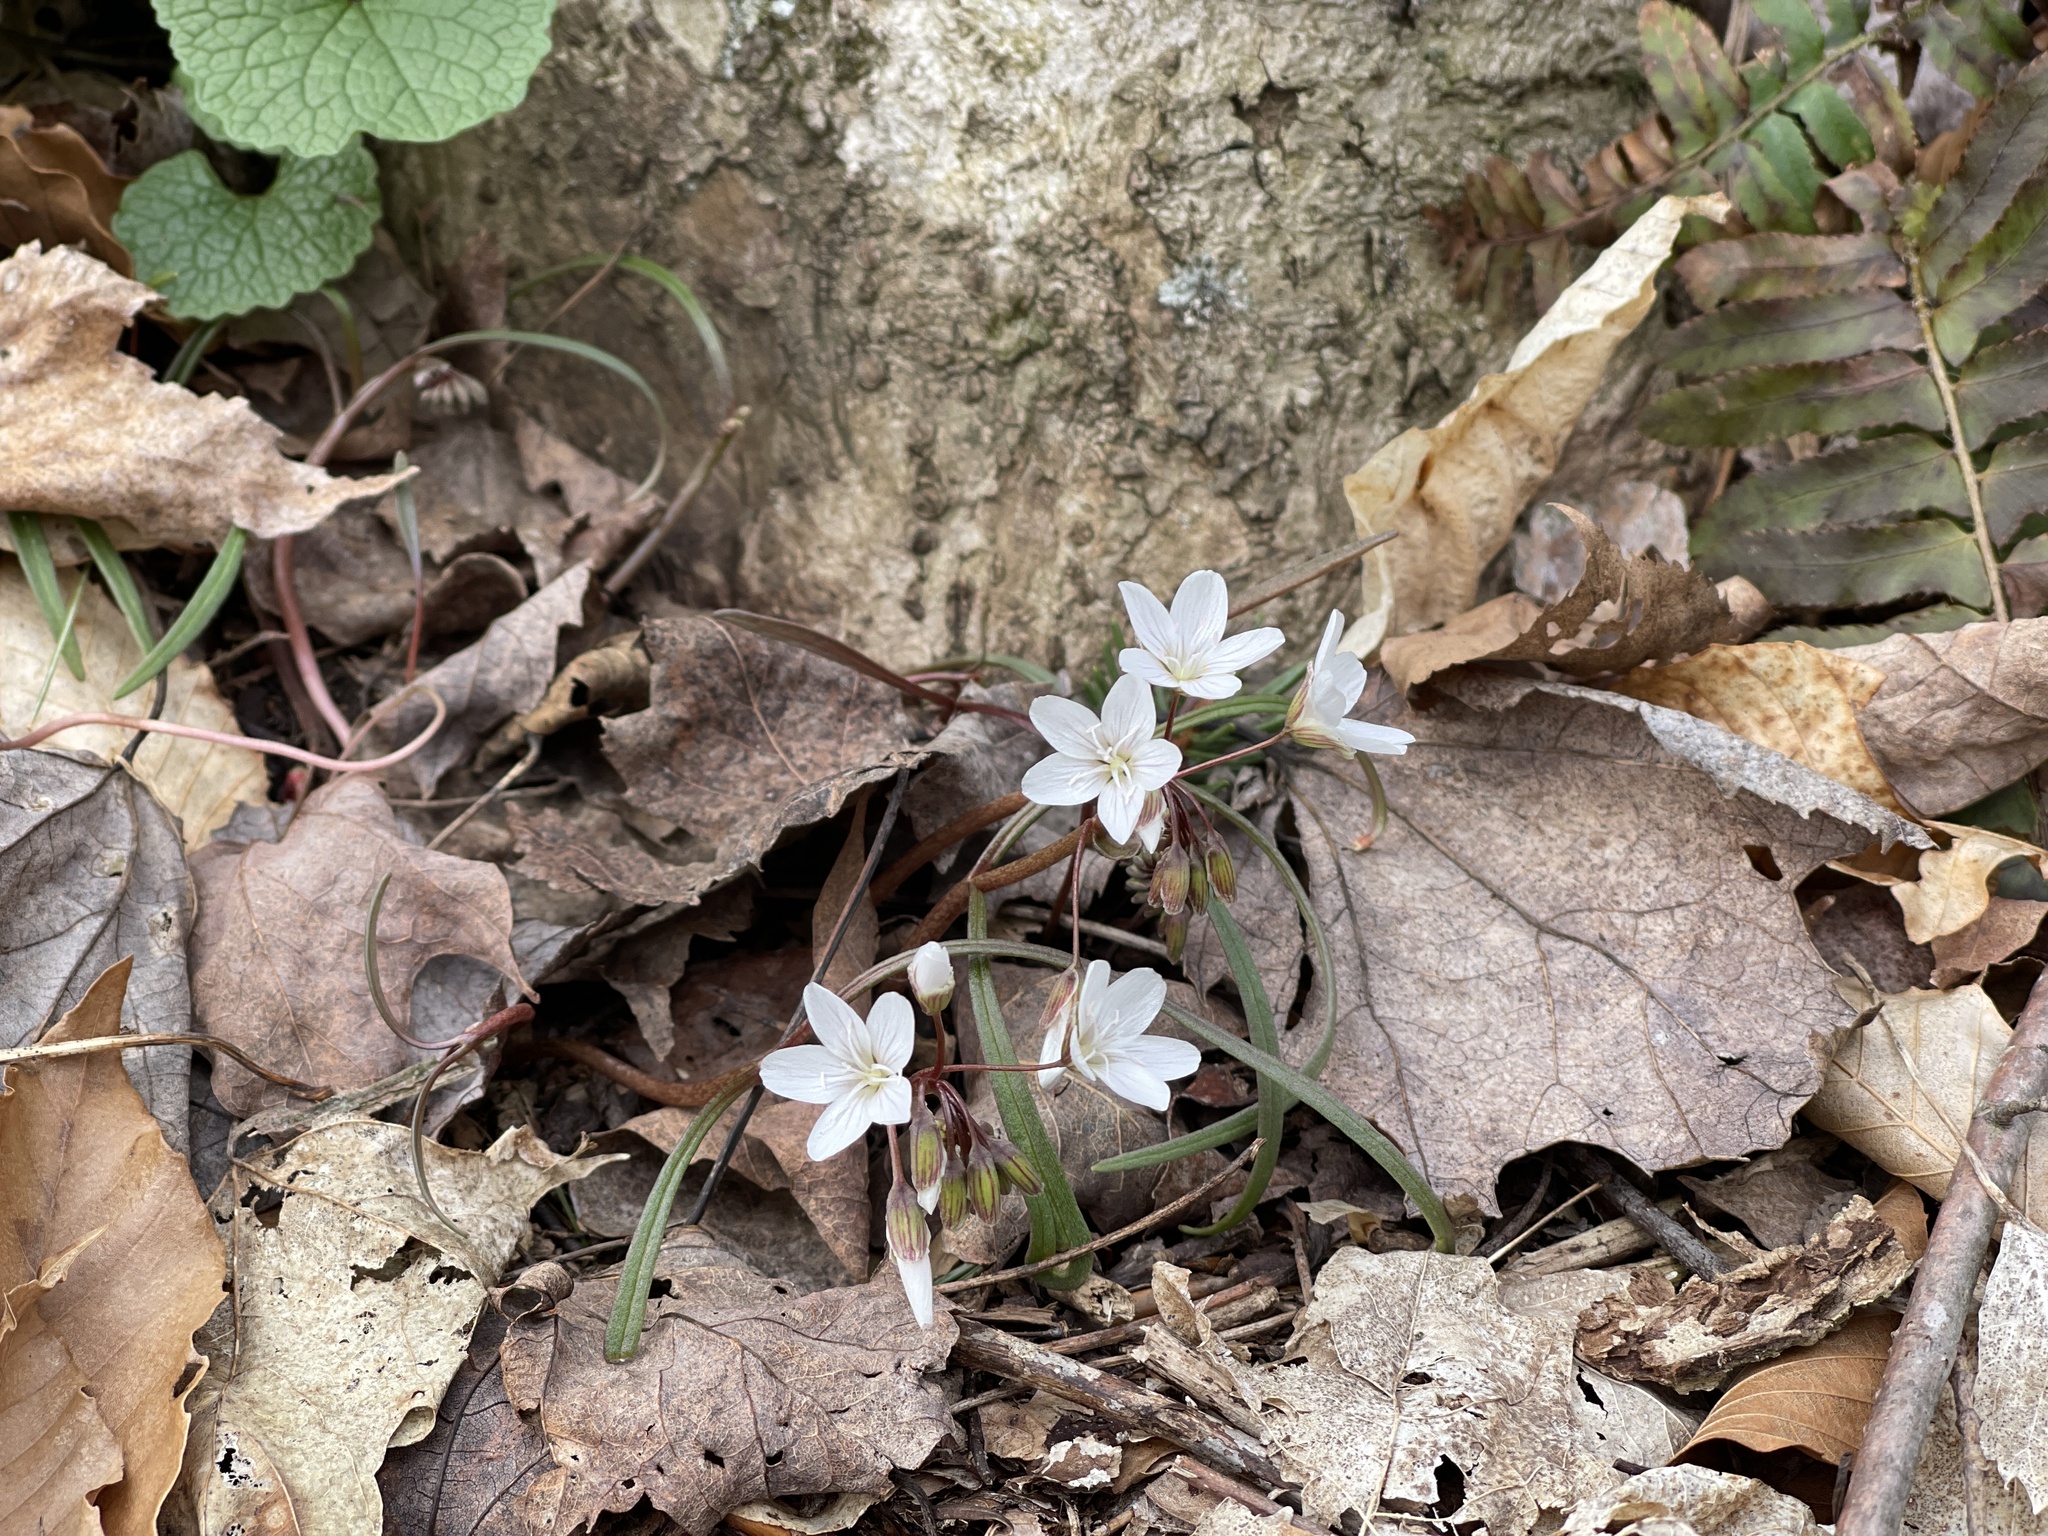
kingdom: Plantae
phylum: Tracheophyta
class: Magnoliopsida
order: Caryophyllales
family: Montiaceae
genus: Claytonia
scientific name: Claytonia virginica
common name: Virginia springbeauty
